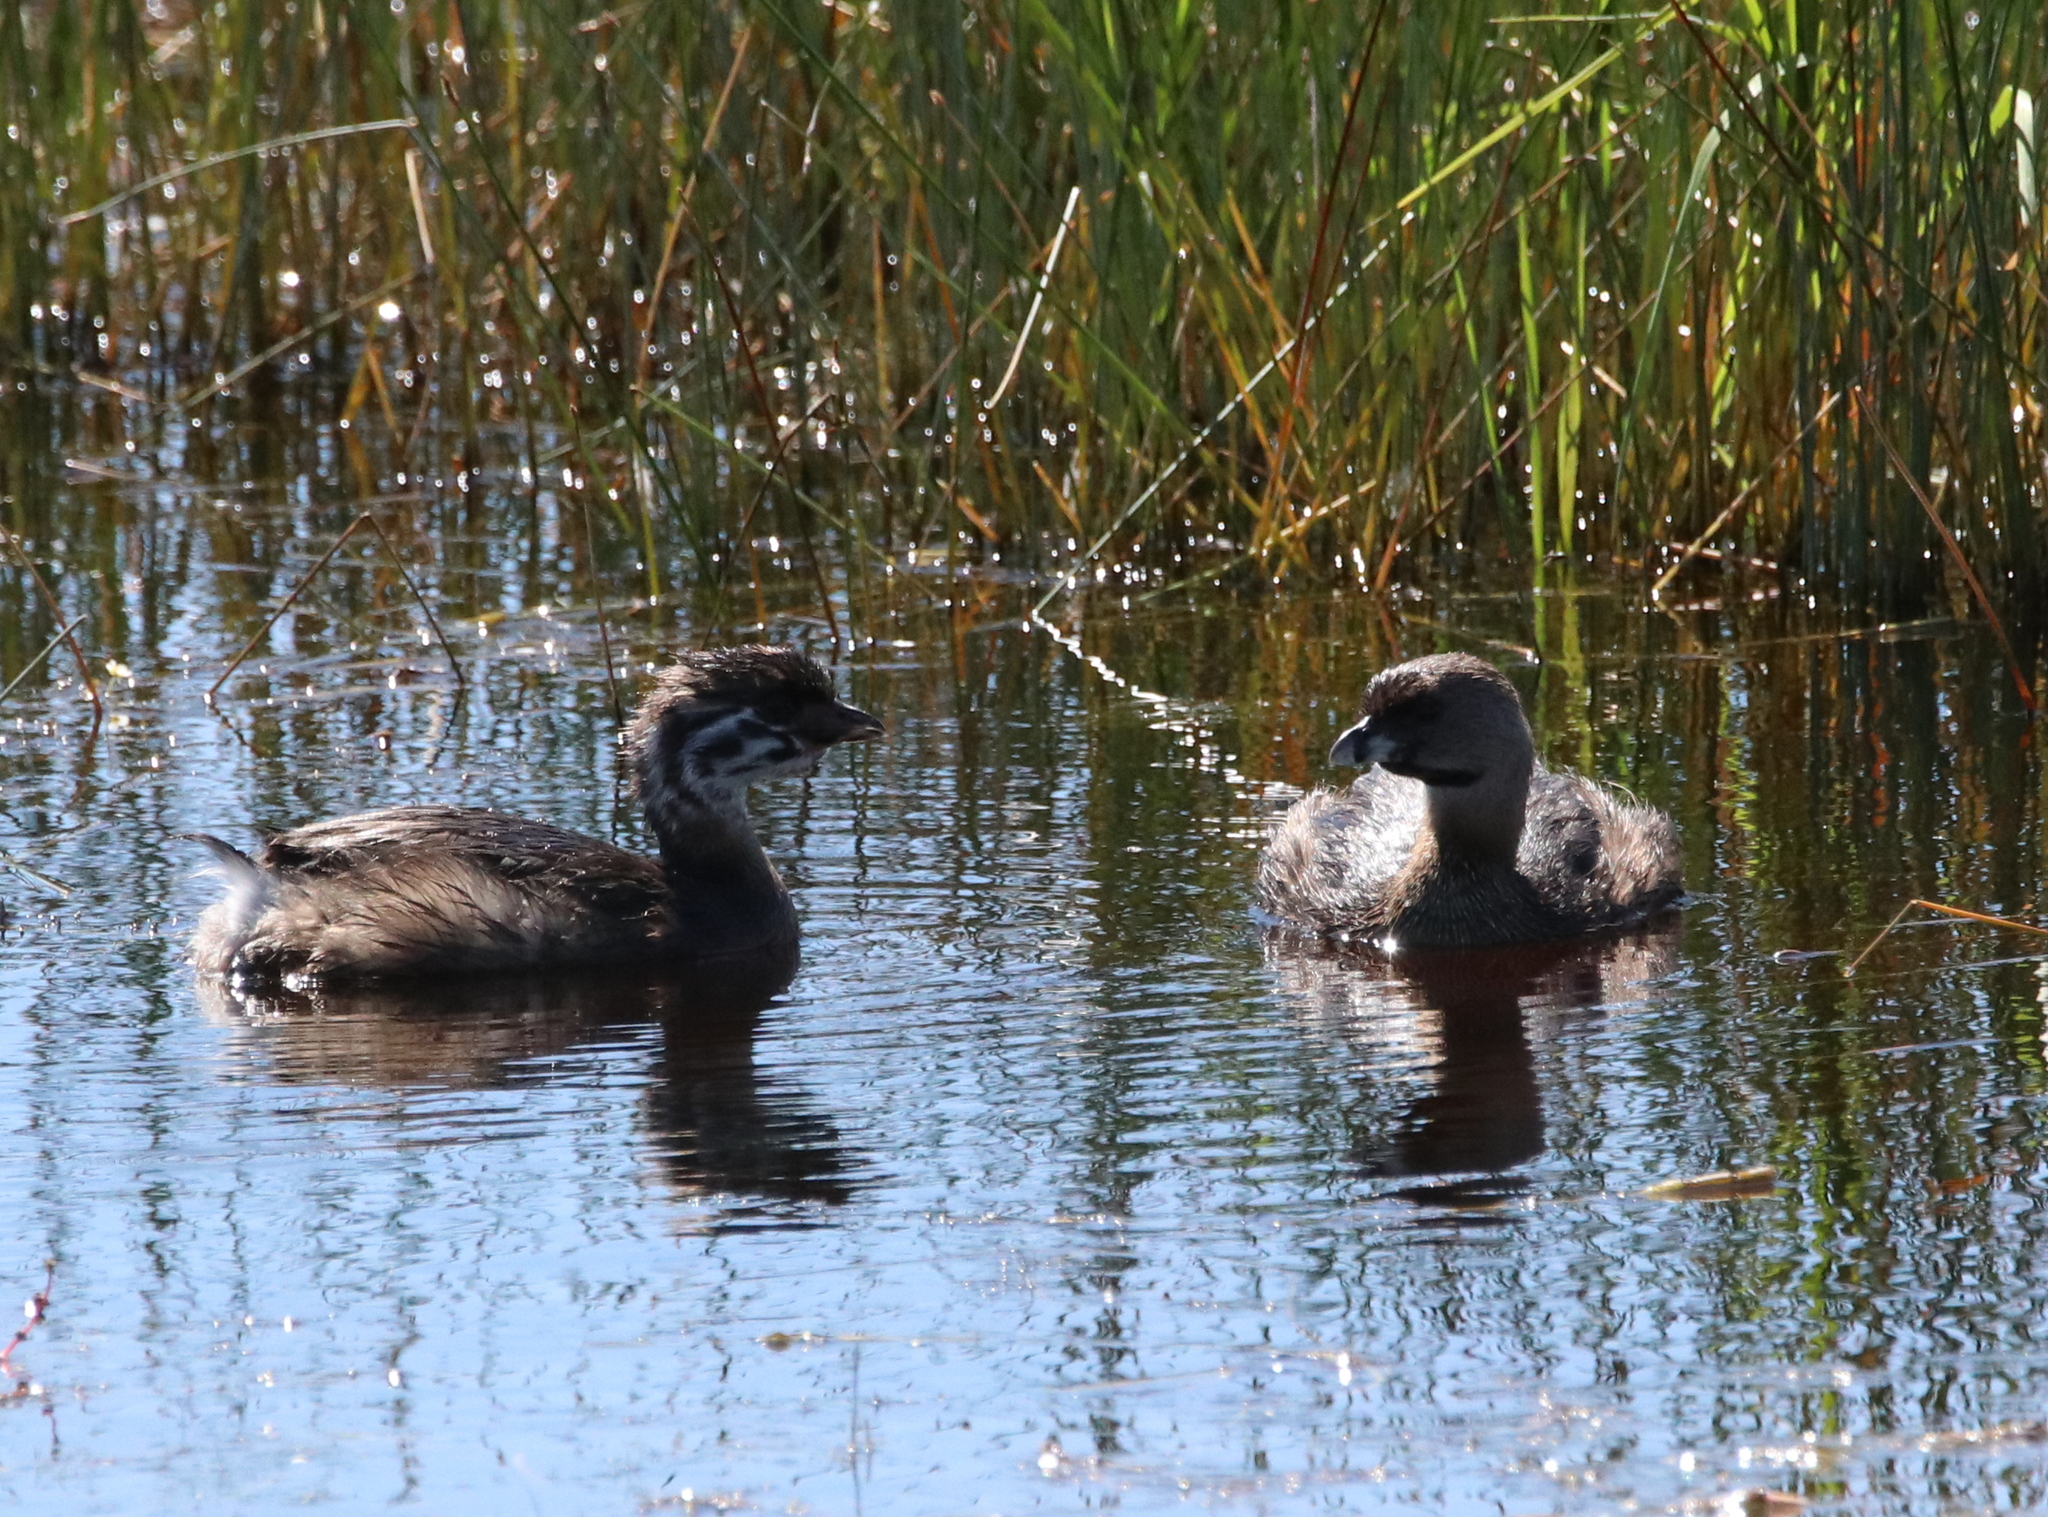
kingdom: Animalia
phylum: Chordata
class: Aves
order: Podicipediformes
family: Podicipedidae
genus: Podilymbus
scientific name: Podilymbus podiceps
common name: Pied-billed grebe
